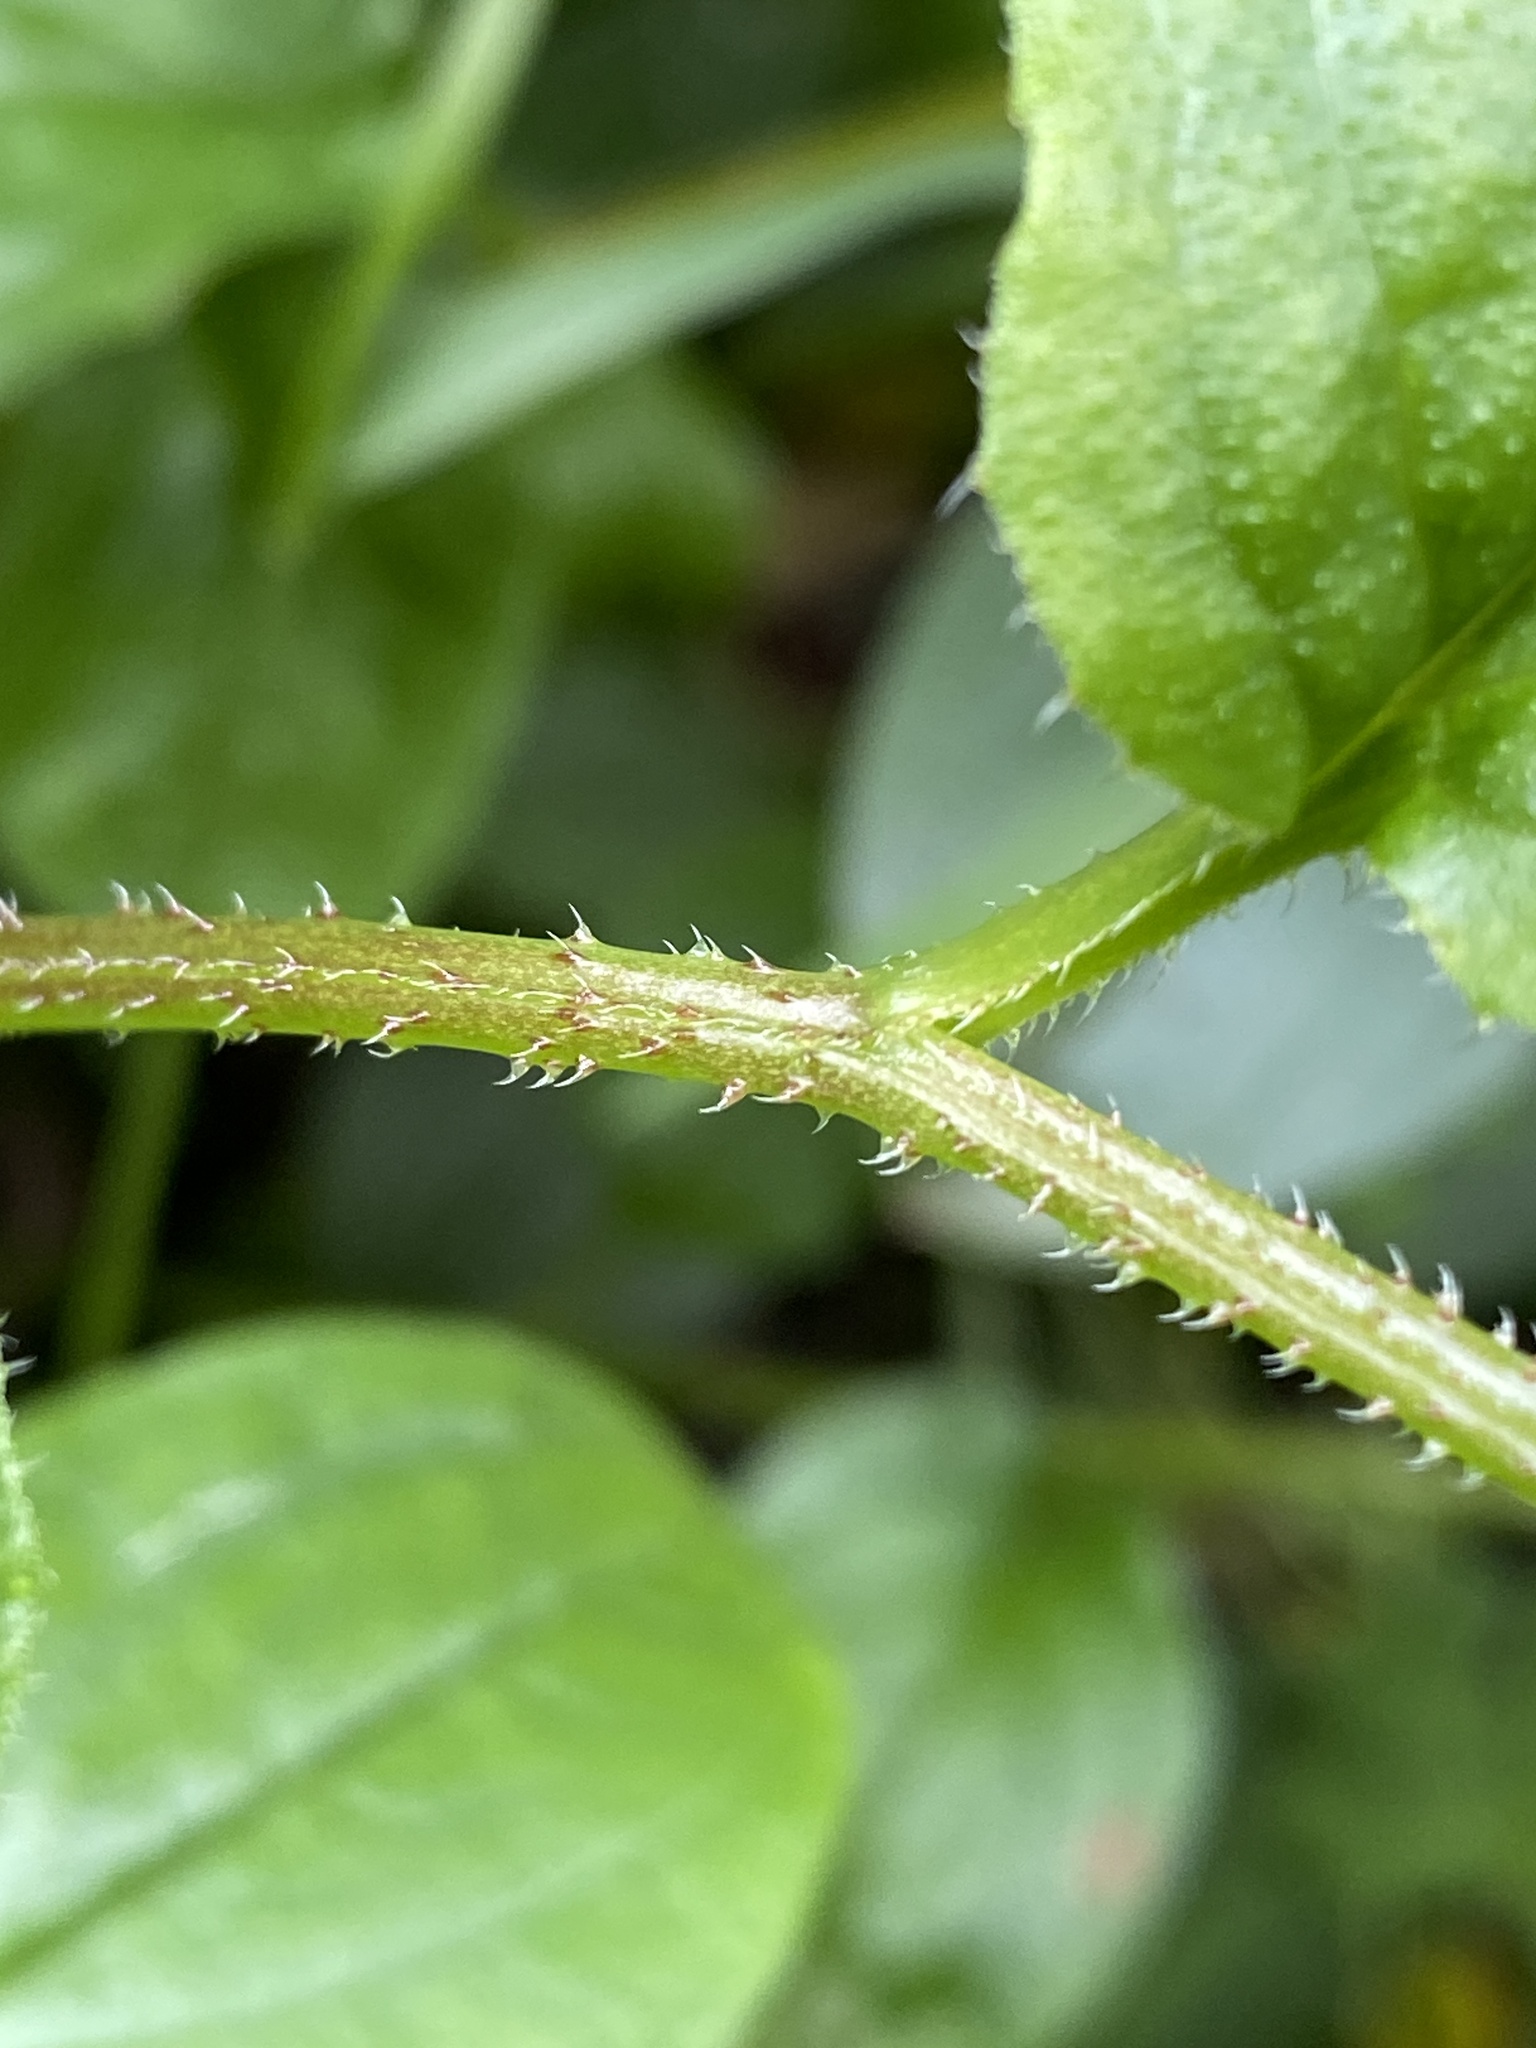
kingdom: Plantae
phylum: Tracheophyta
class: Magnoliopsida
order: Boraginales
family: Boraginaceae
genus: Hackelia
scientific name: Hackelia latifolia
